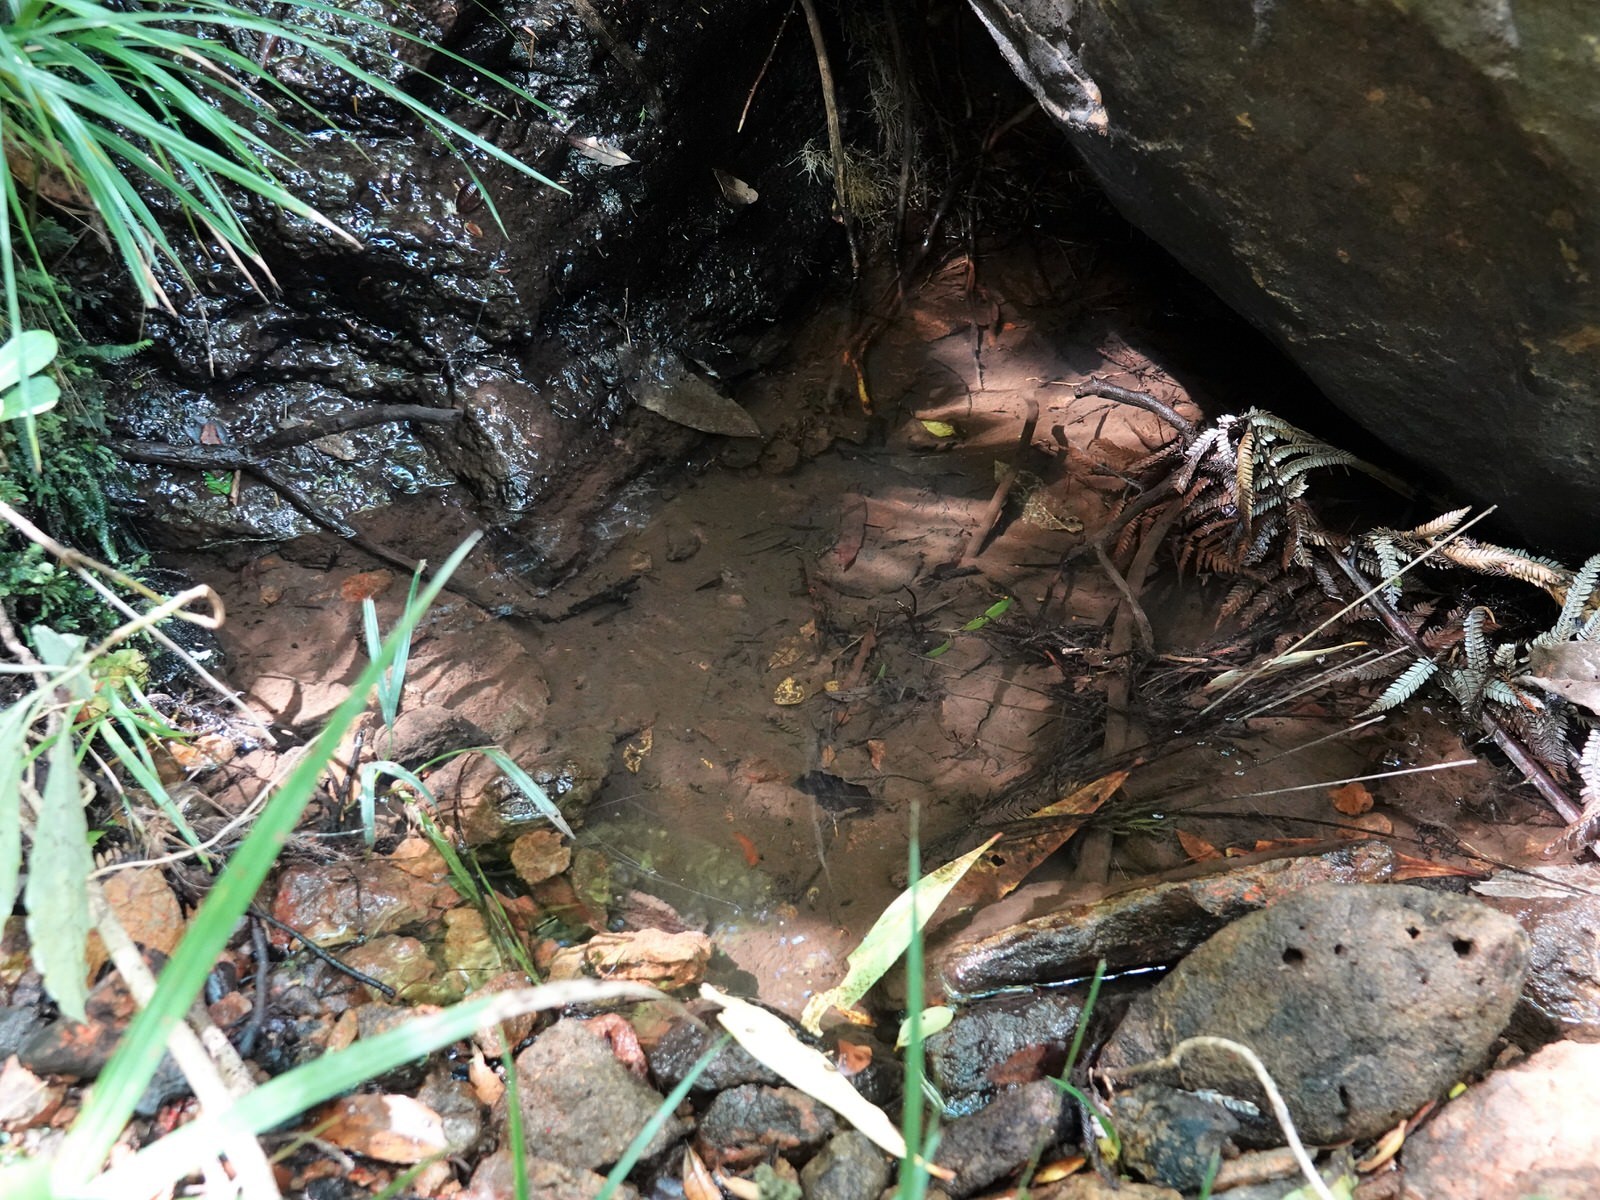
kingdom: Animalia
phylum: Arthropoda
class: Malacostraca
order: Decapoda
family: Parastacidae
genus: Paranephrops
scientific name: Paranephrops planifrons
